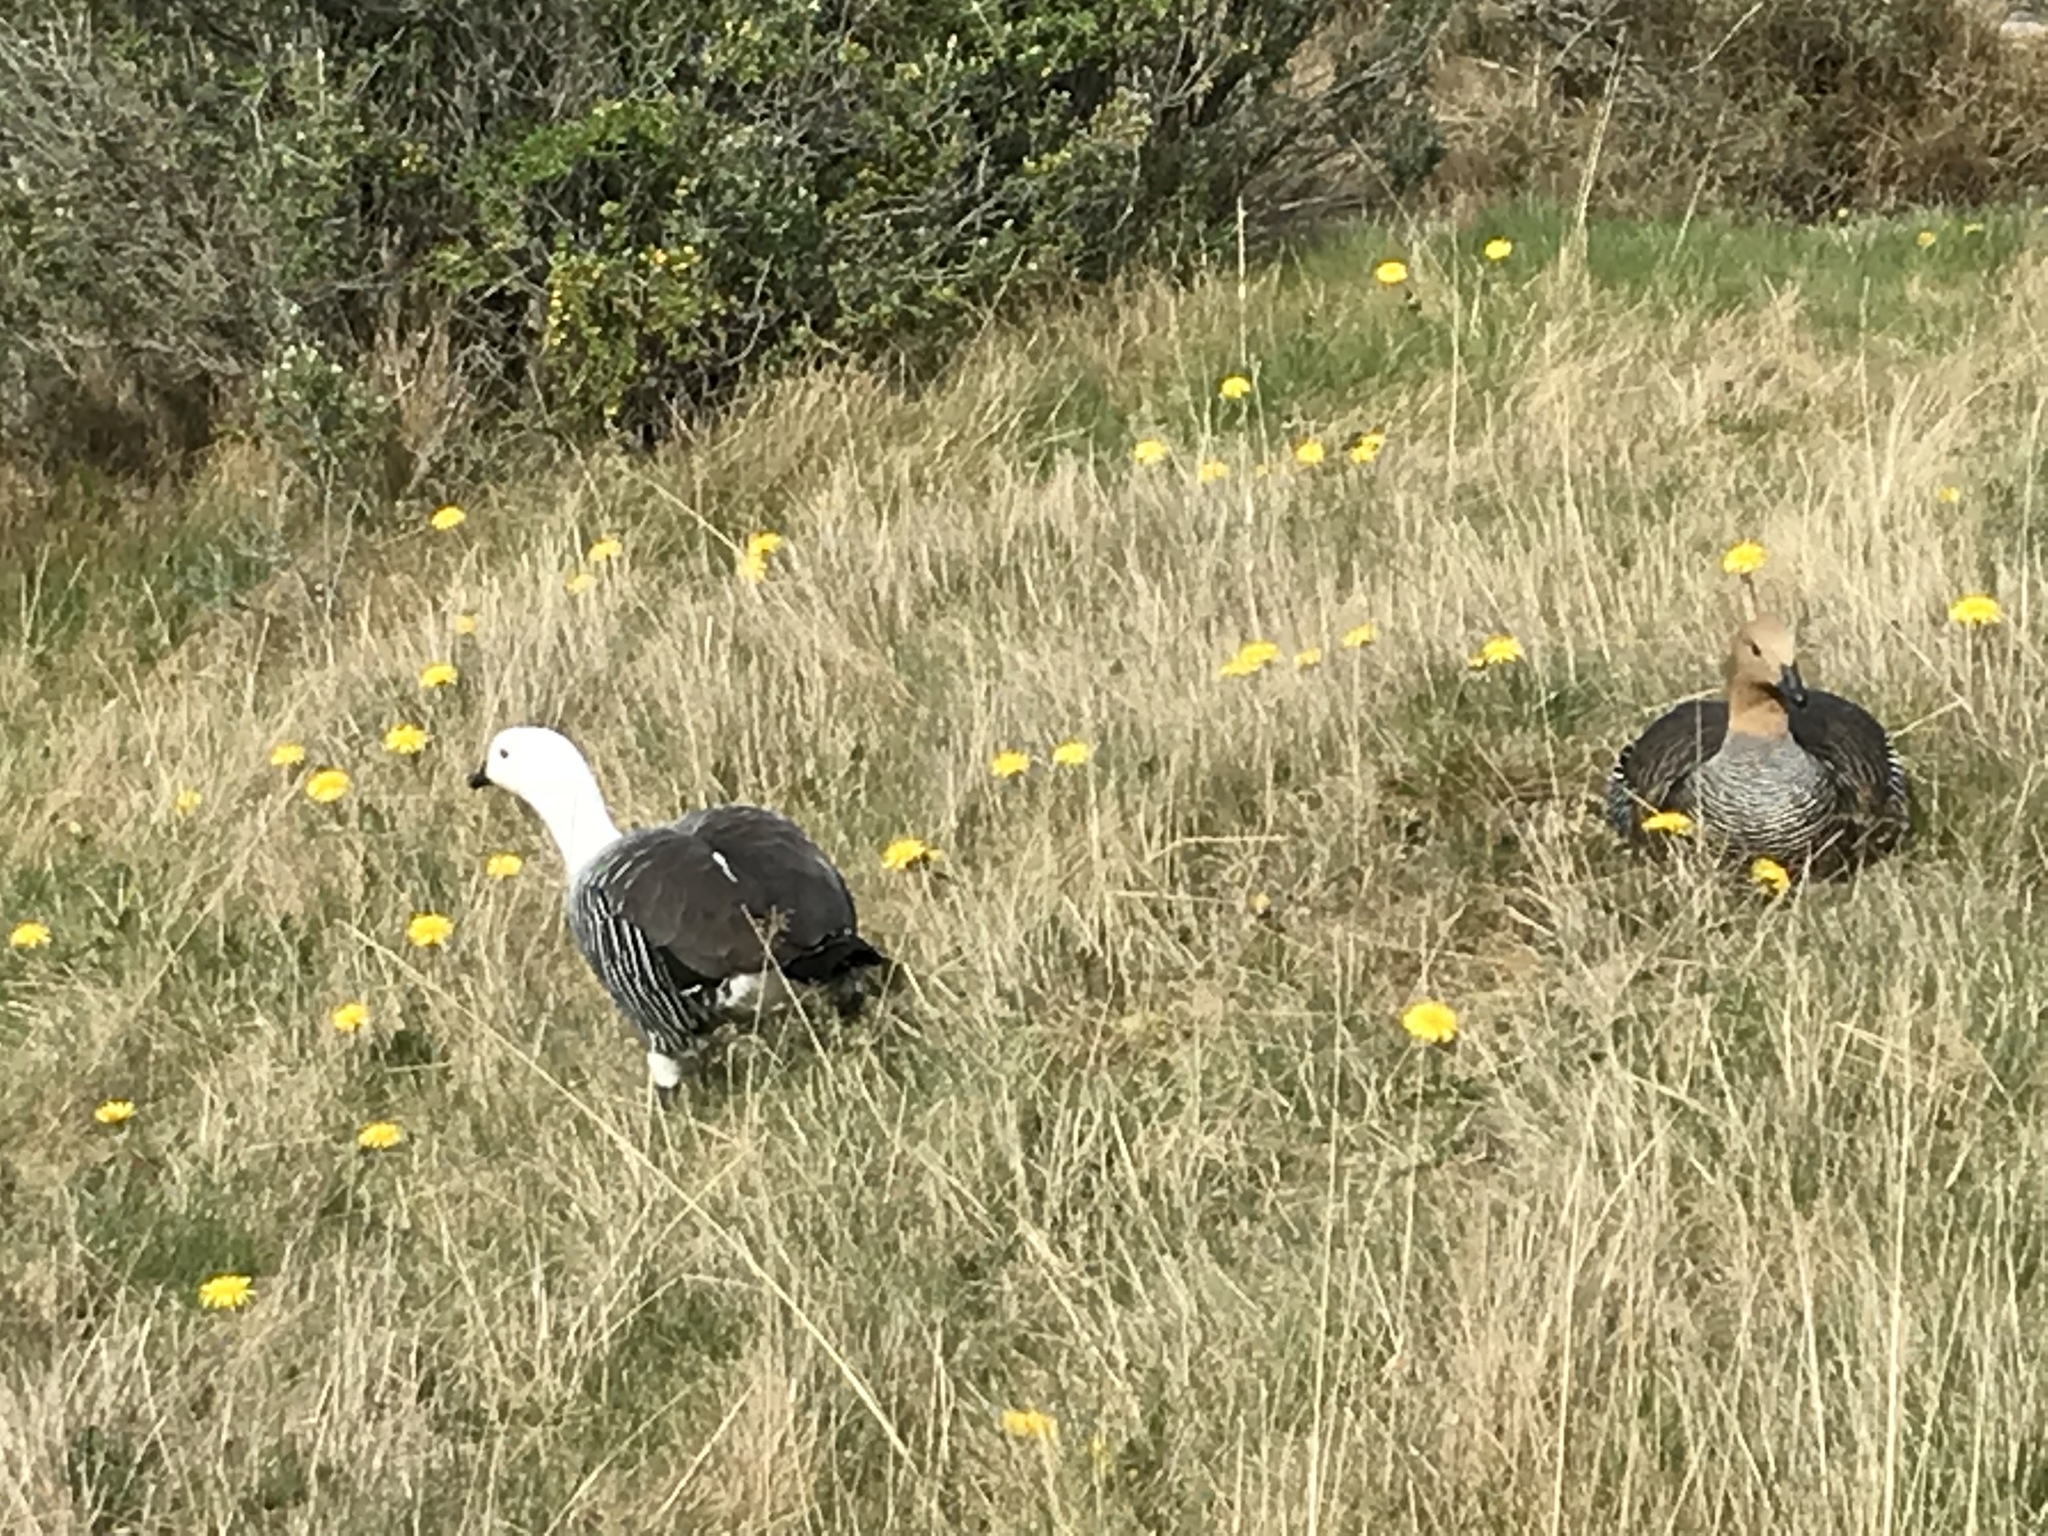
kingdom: Animalia
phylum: Chordata
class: Aves
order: Anseriformes
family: Anatidae
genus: Chloephaga
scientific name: Chloephaga picta
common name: Upland goose
